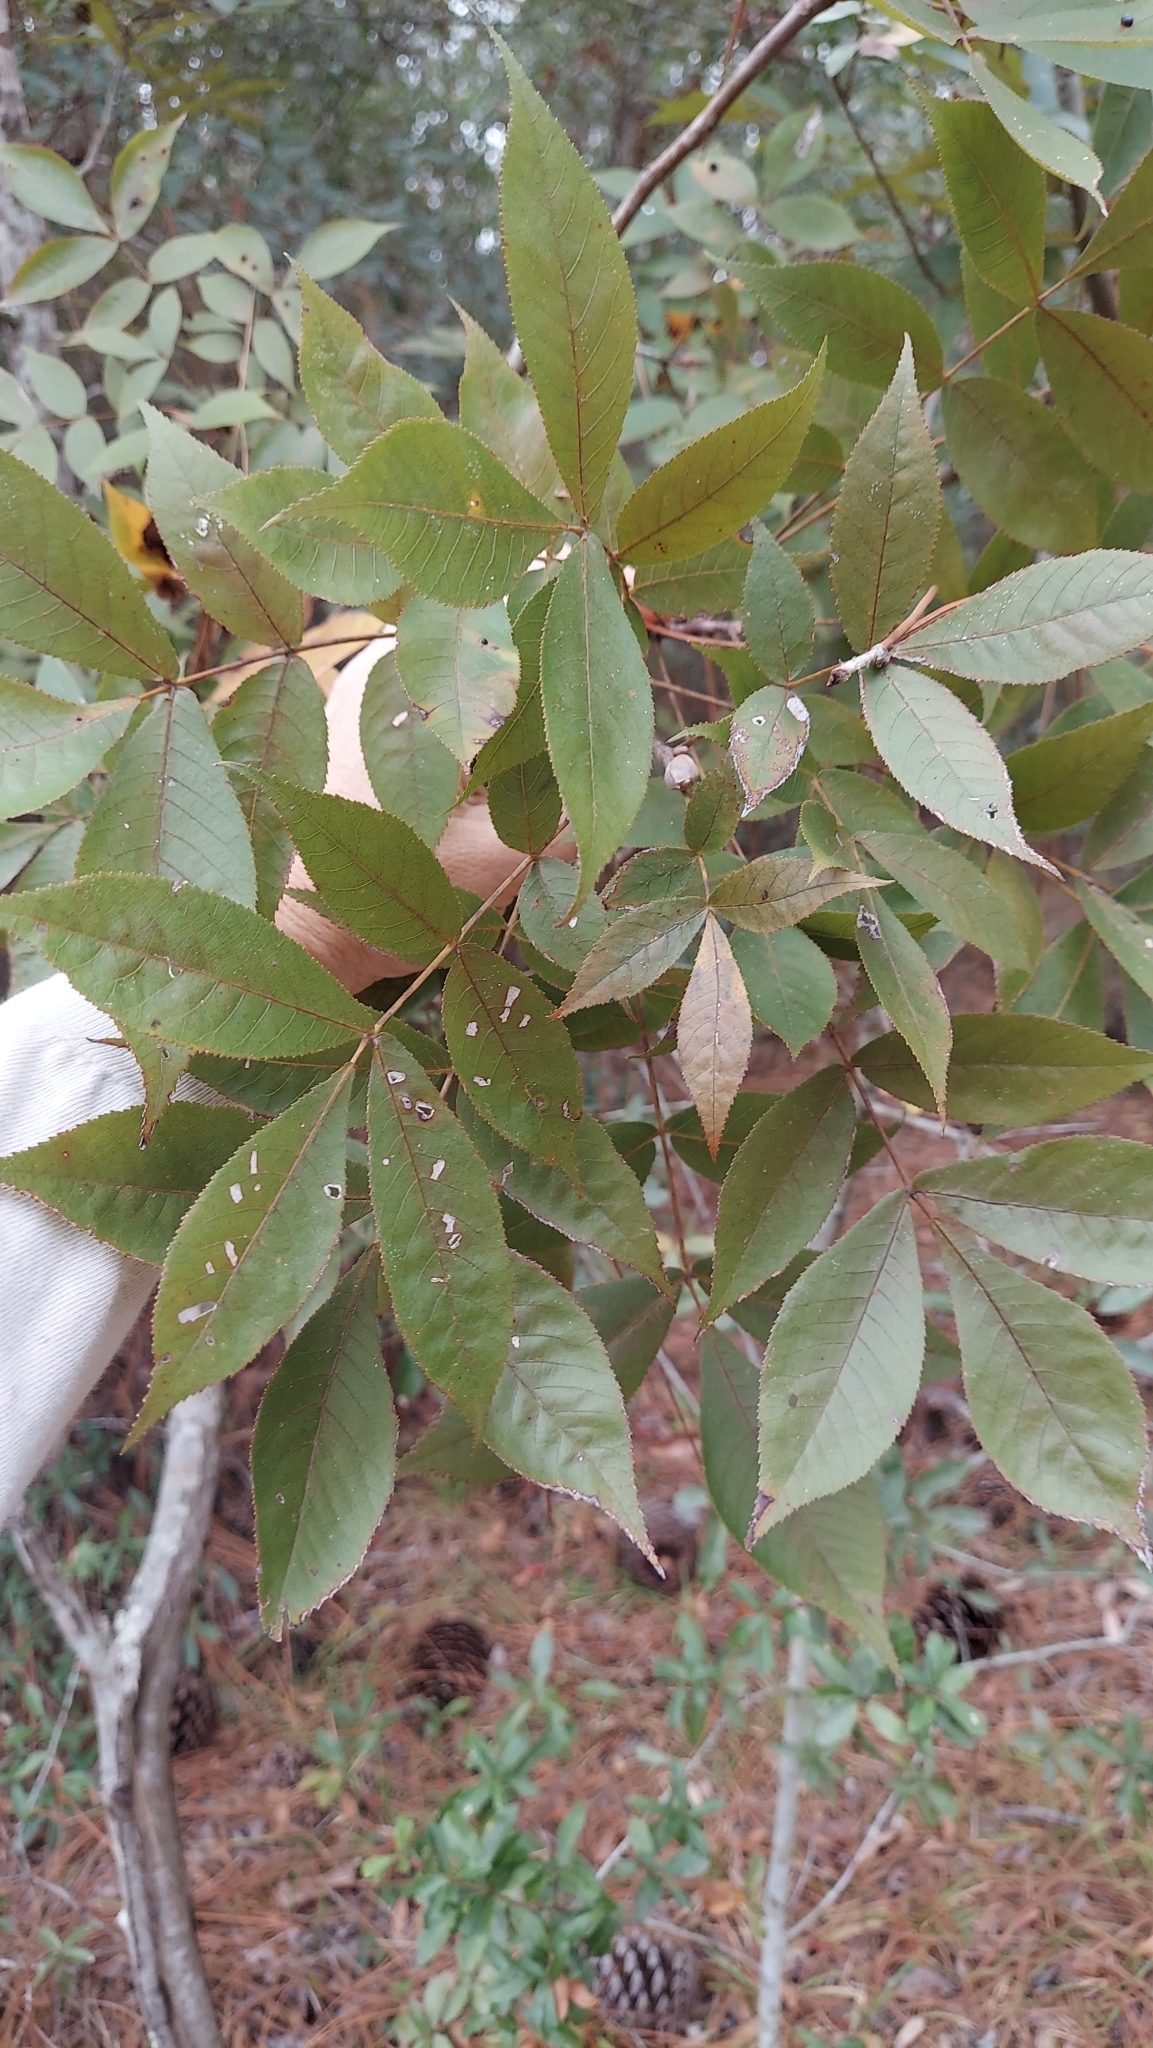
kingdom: Plantae
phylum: Tracheophyta
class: Magnoliopsida
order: Fagales
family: Juglandaceae
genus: Carya
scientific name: Carya glabra
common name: Pignut hickory
